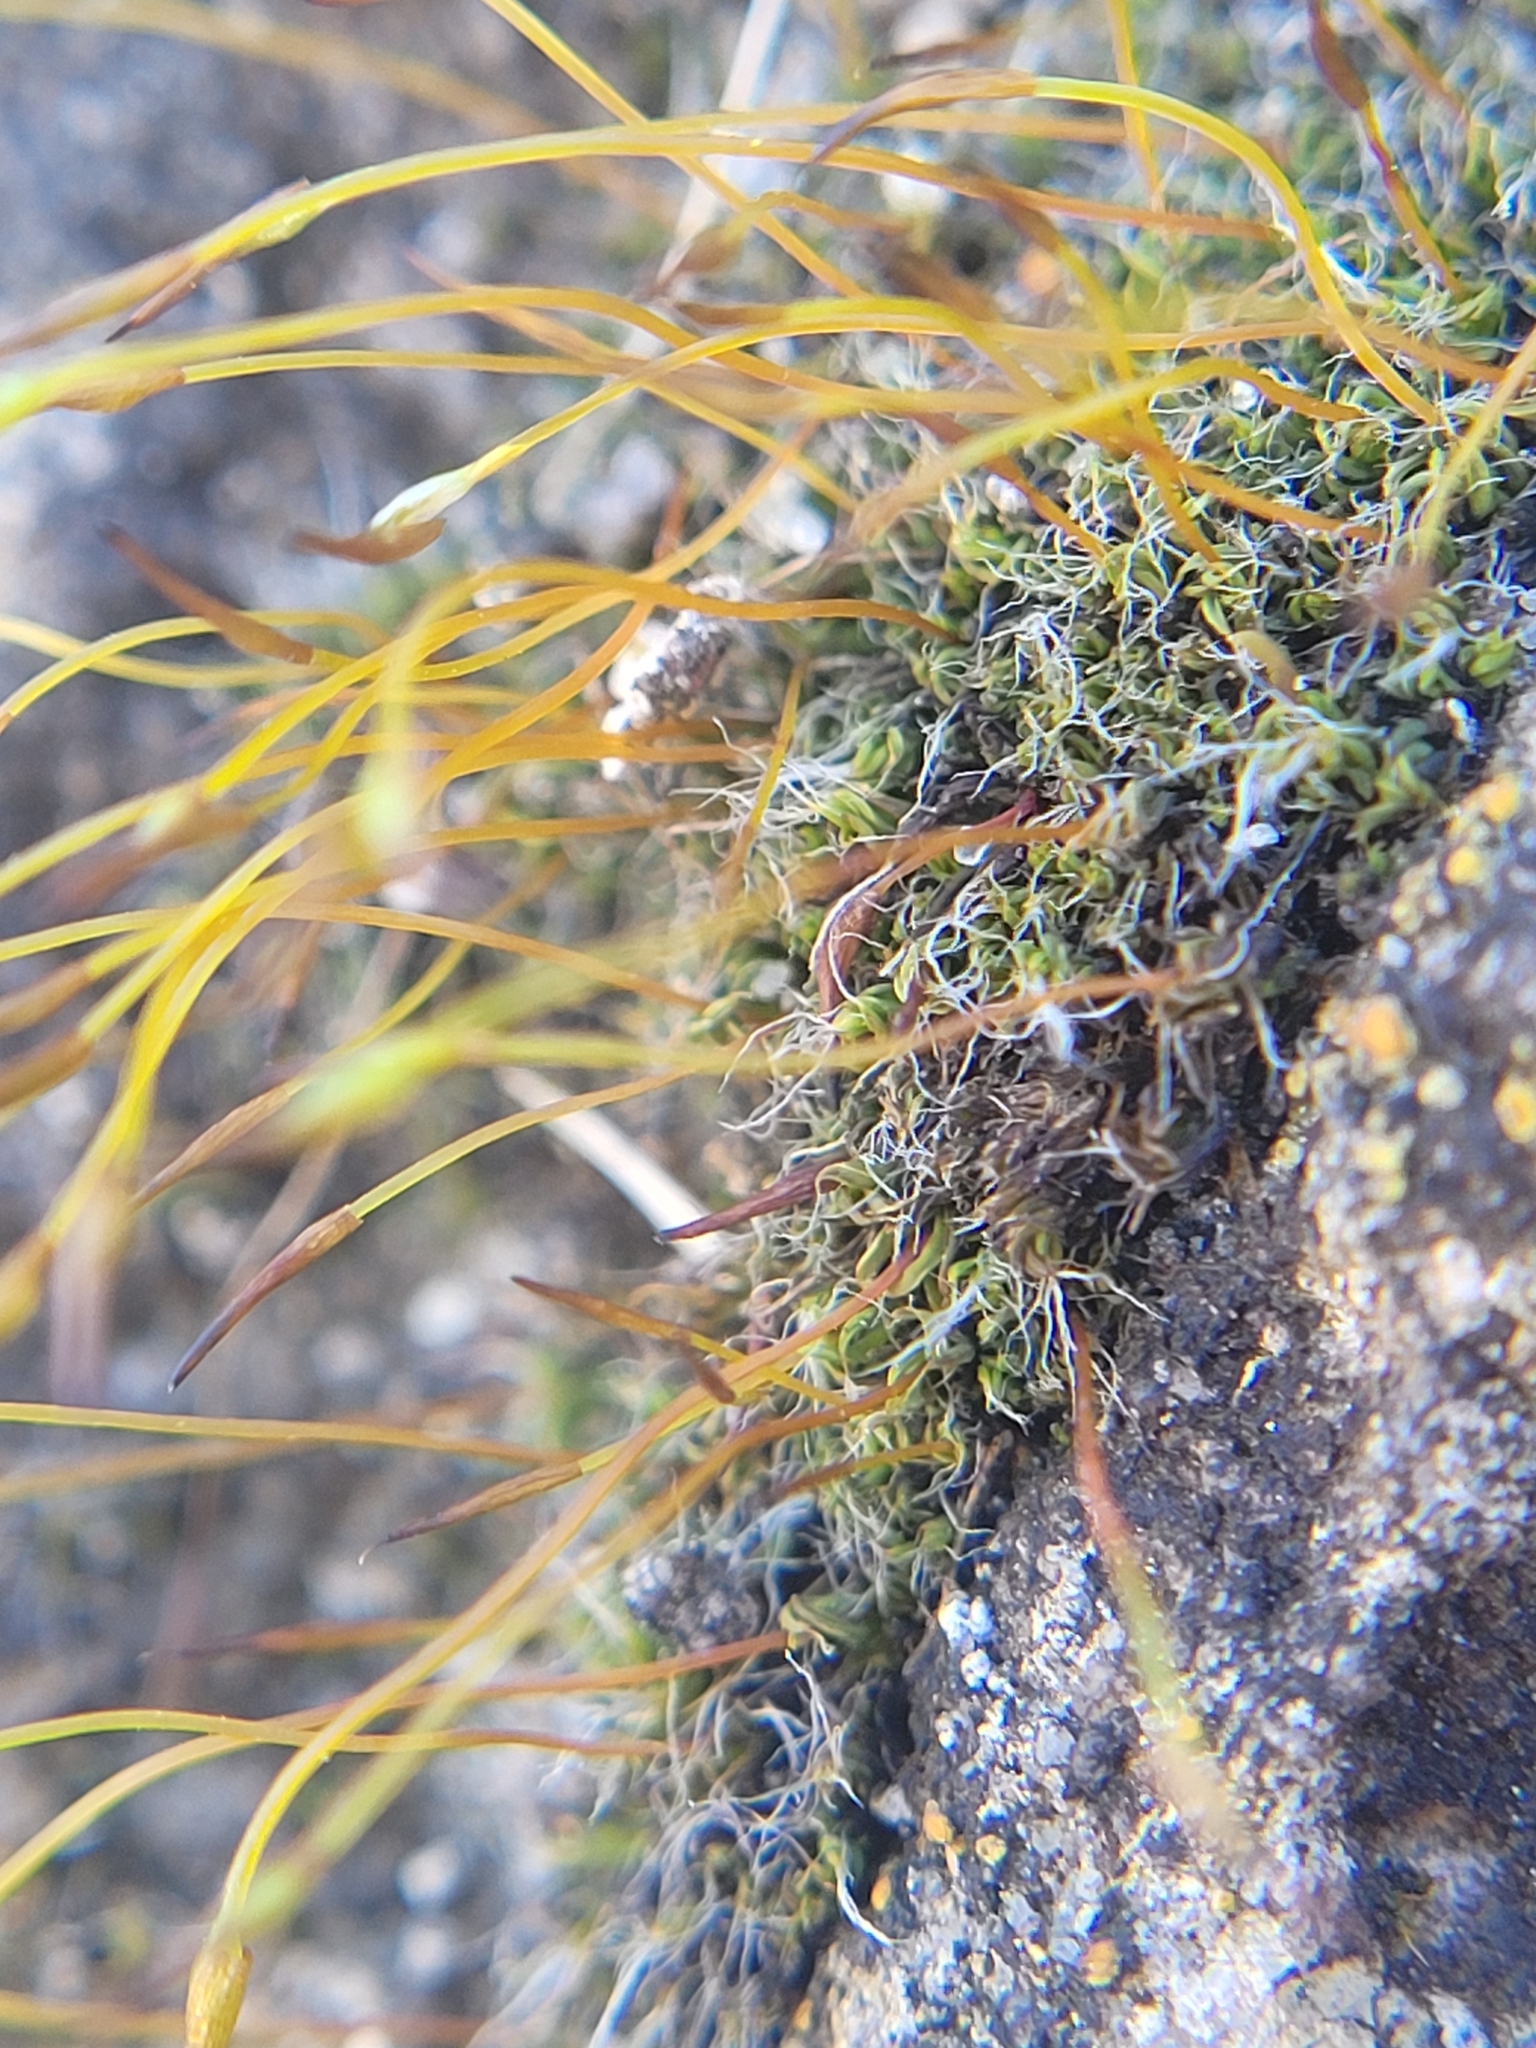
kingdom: Plantae
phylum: Bryophyta
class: Bryopsida
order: Pottiales
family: Pottiaceae
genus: Tortula
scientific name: Tortula muralis
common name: Wall screw-moss
